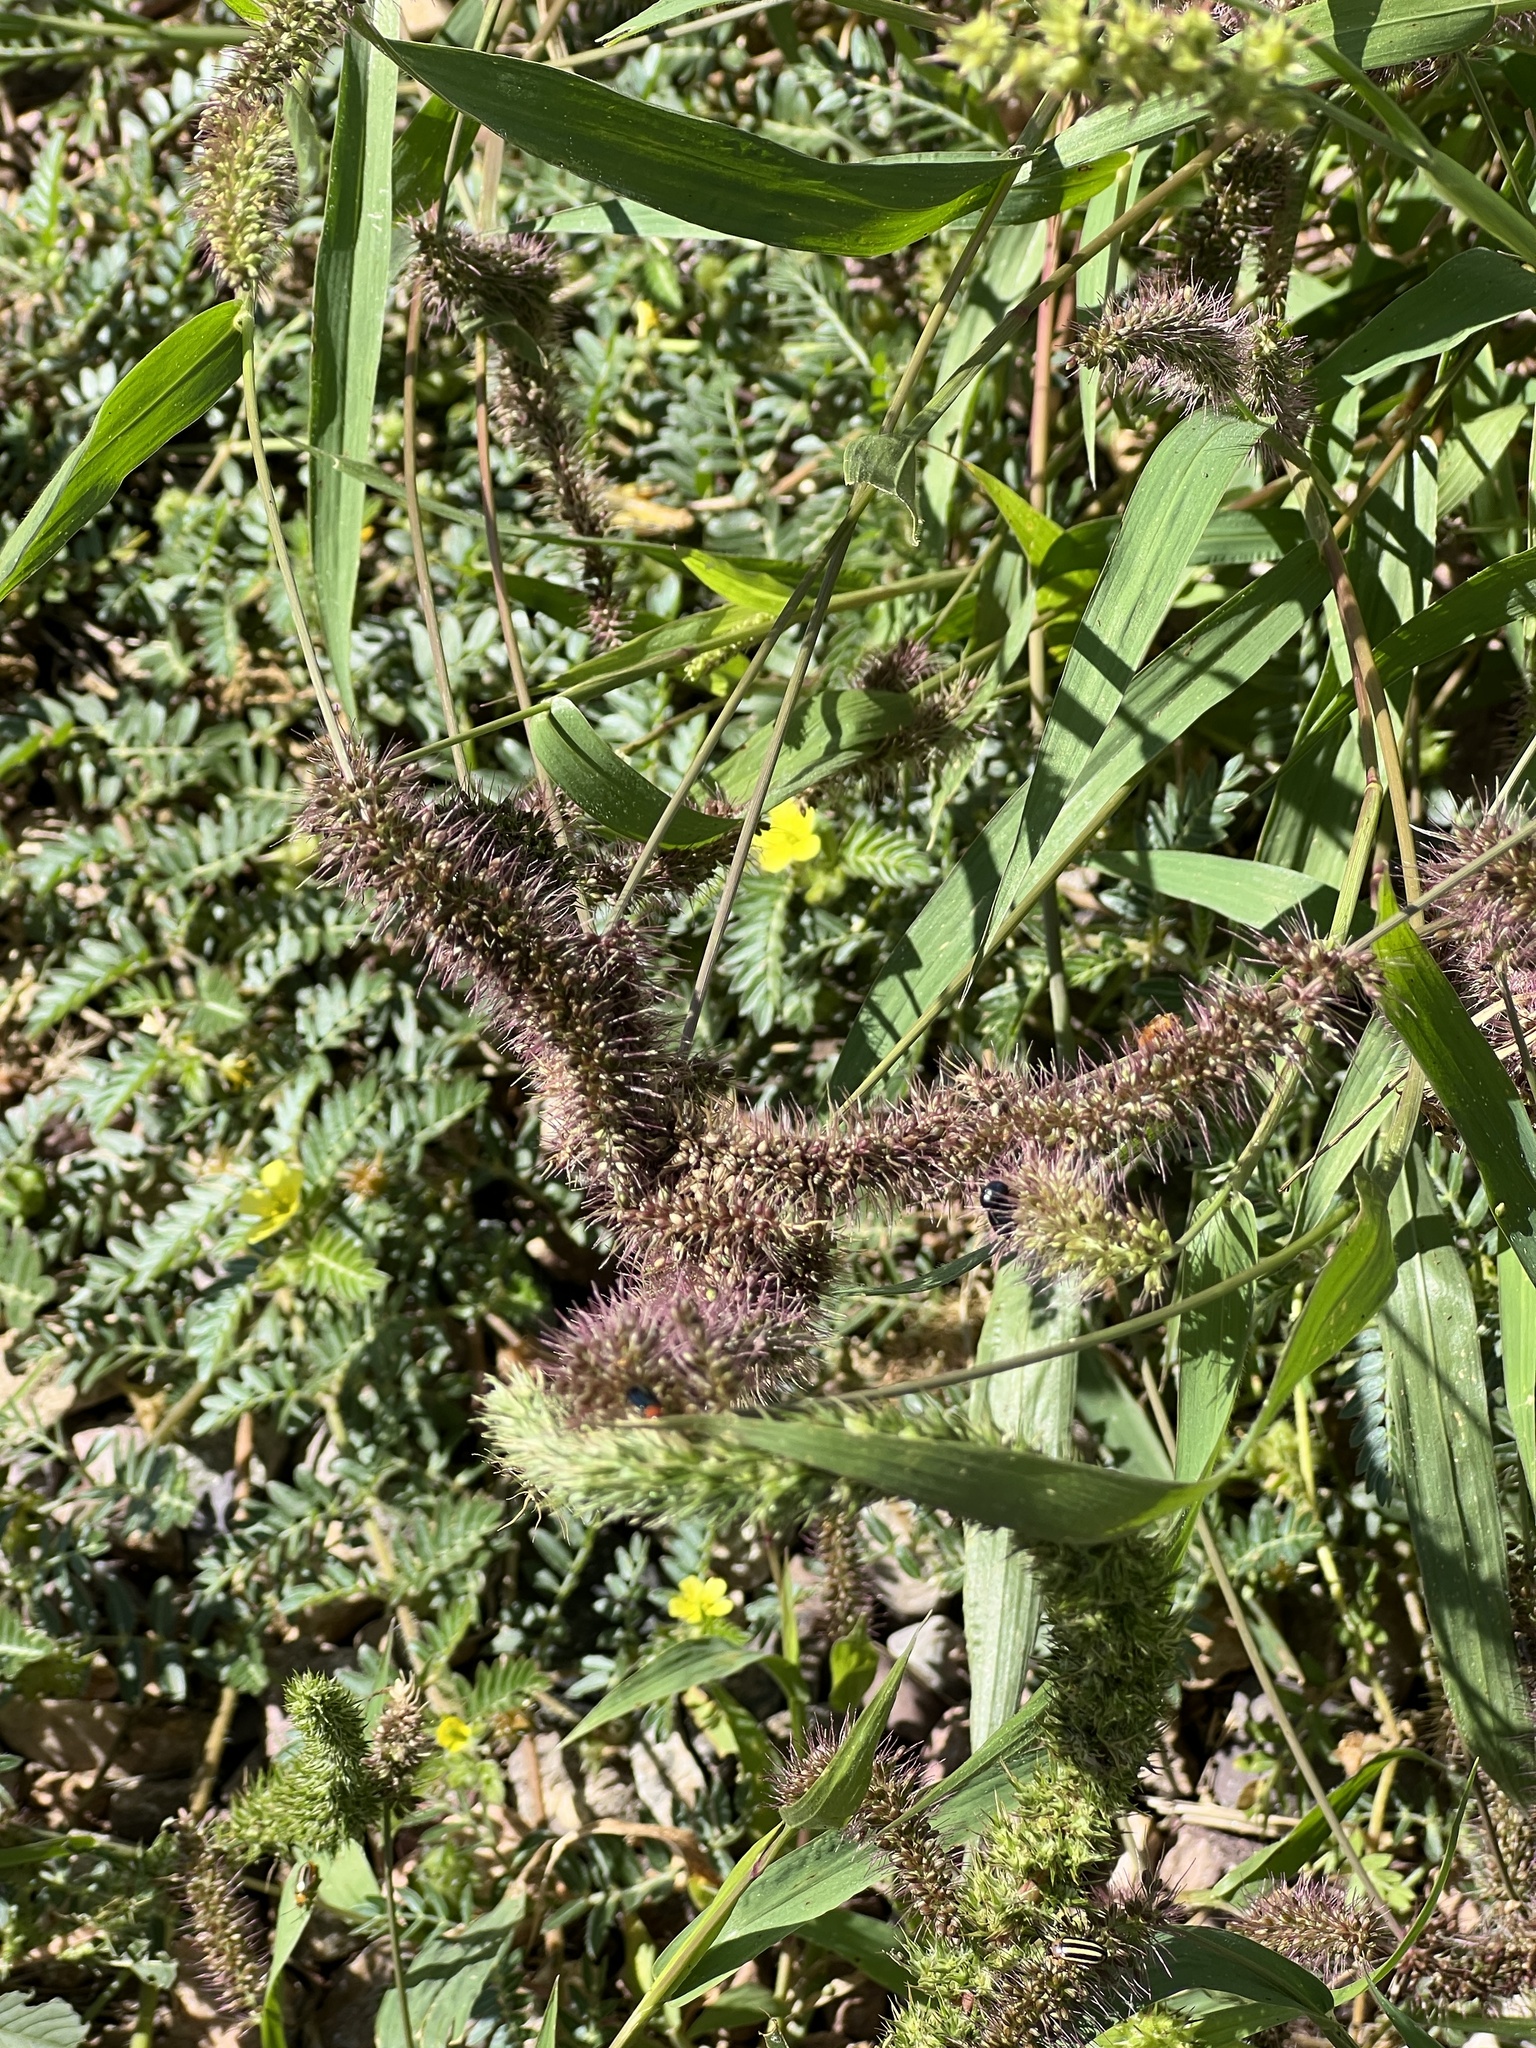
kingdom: Plantae
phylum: Tracheophyta
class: Liliopsida
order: Poales
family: Poaceae
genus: Setaria
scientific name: Setaria adhaerens
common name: Adherent bristle-grass
